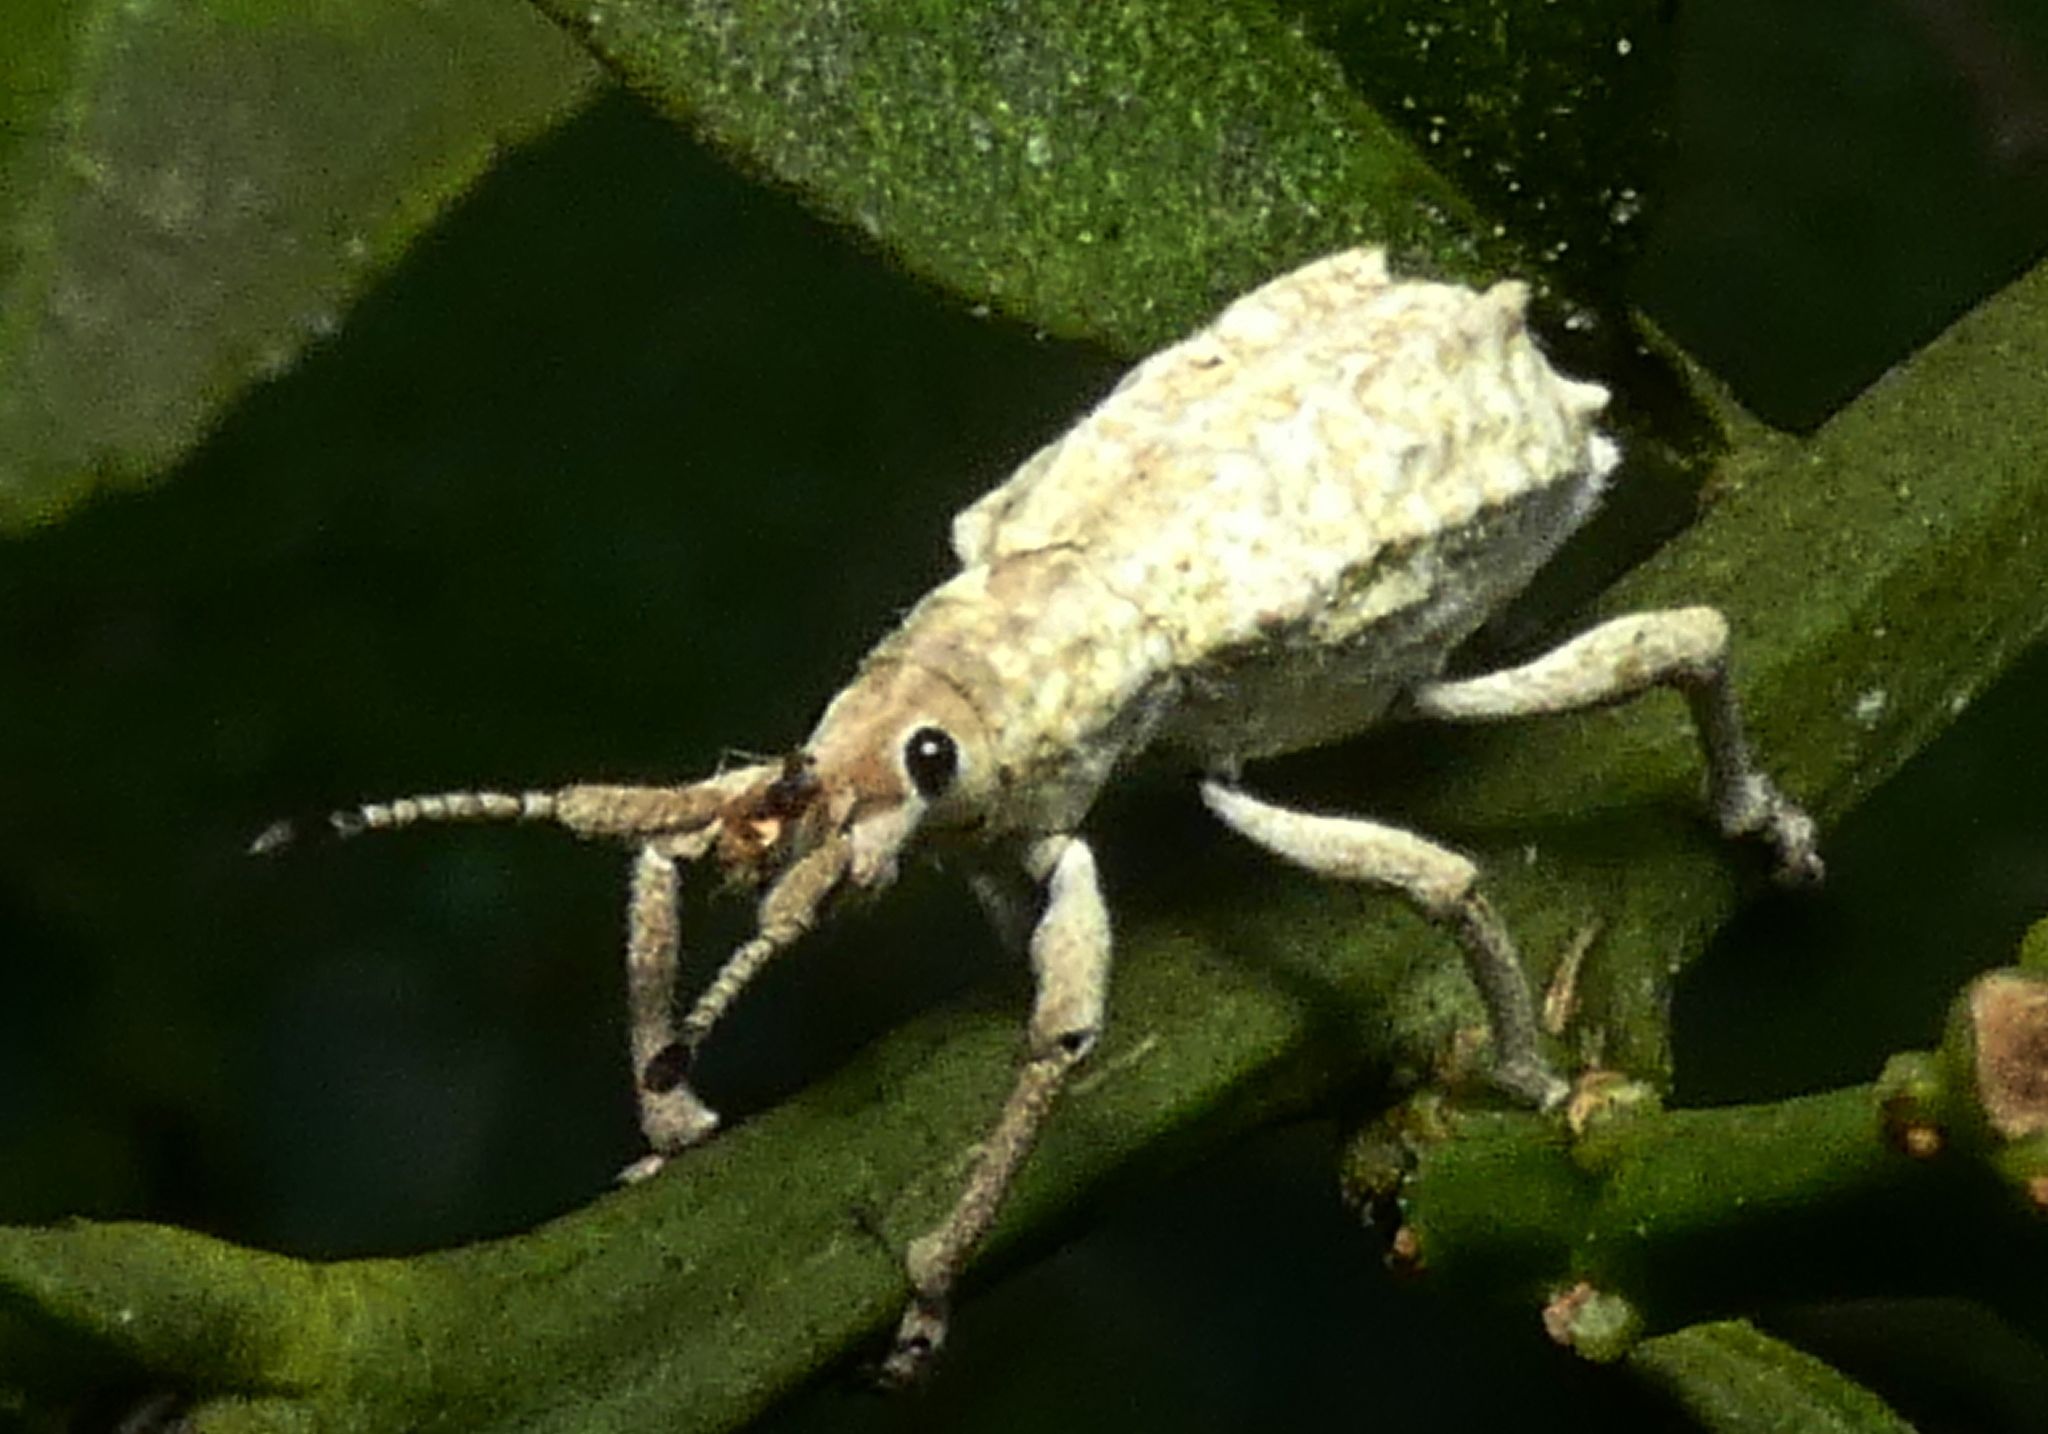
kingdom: Animalia
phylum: Arthropoda
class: Insecta
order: Coleoptera
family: Curculionidae
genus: Compsus
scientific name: Compsus niveus
